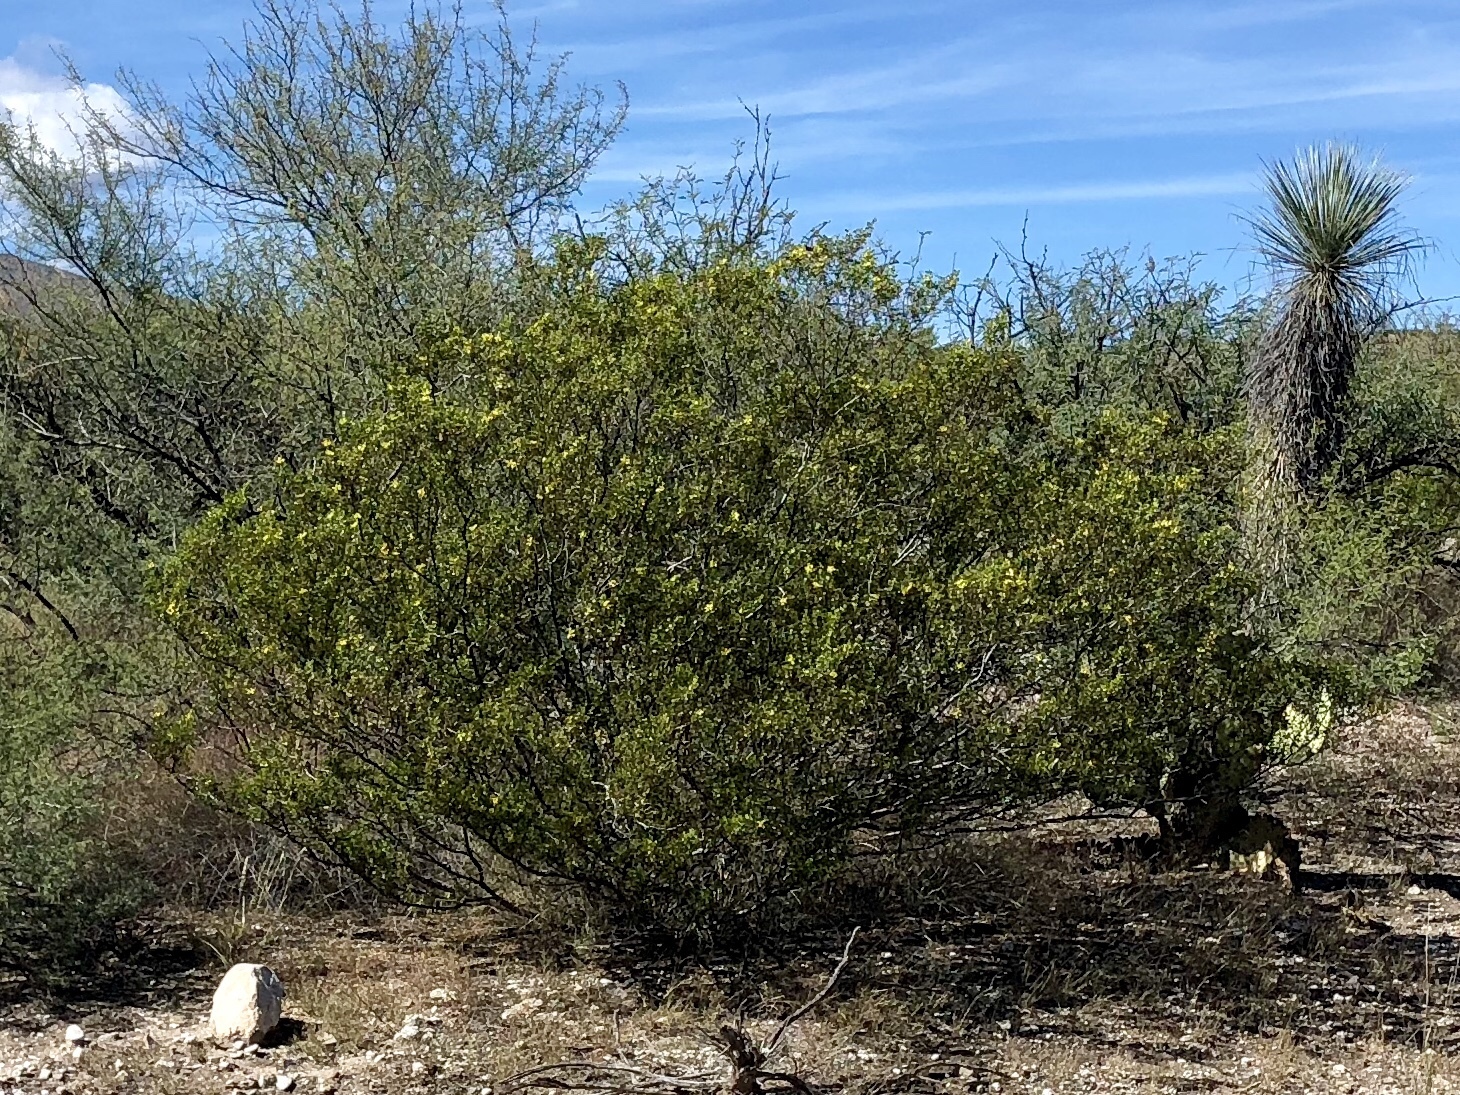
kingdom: Plantae
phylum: Tracheophyta
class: Magnoliopsida
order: Zygophyllales
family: Zygophyllaceae
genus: Larrea
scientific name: Larrea tridentata
